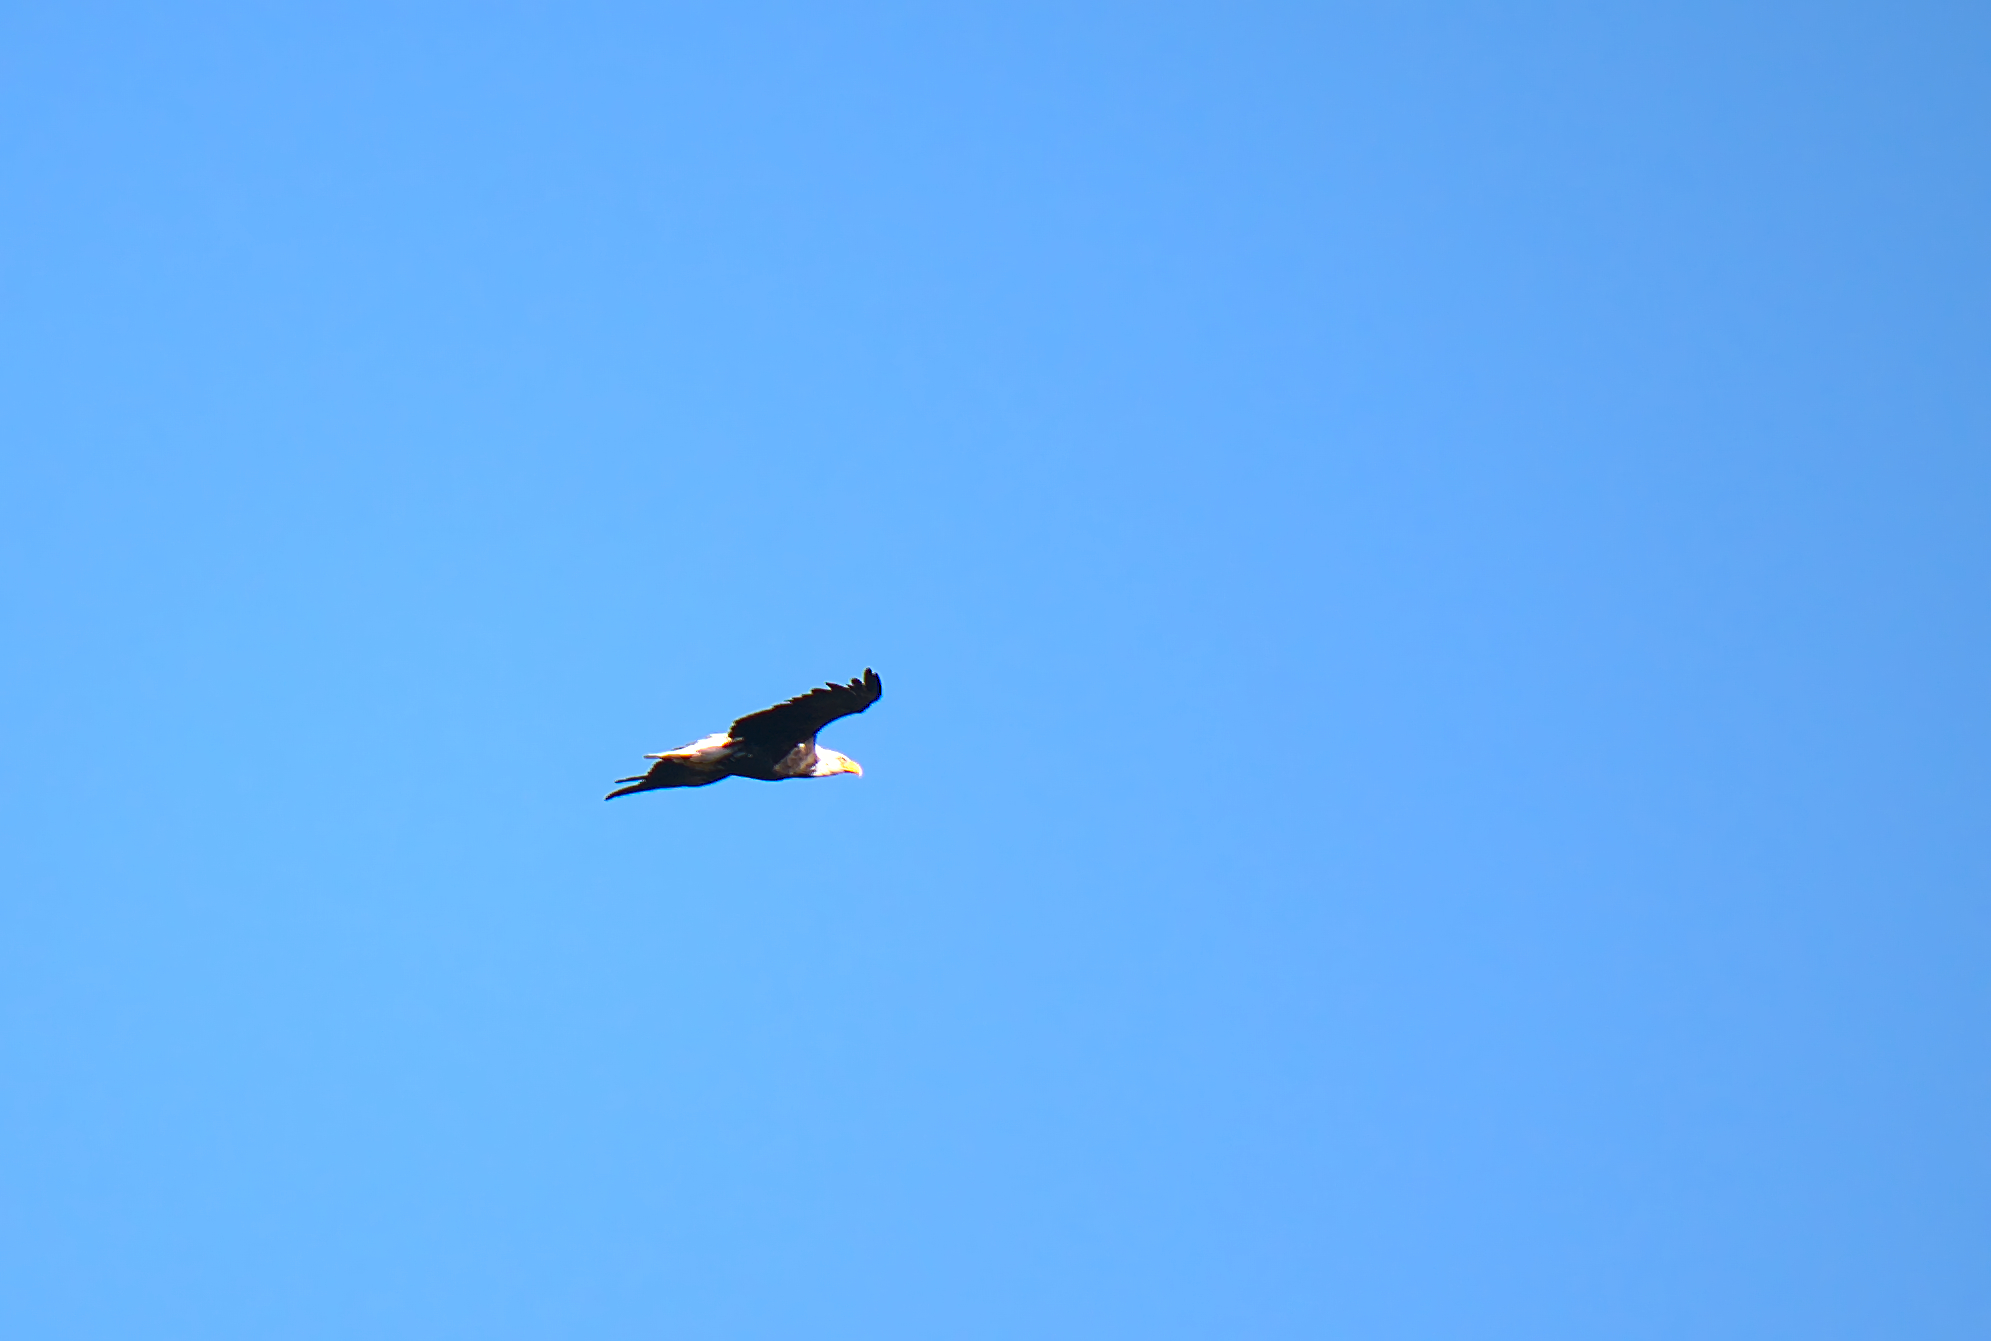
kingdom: Animalia
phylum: Chordata
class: Aves
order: Accipitriformes
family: Accipitridae
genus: Haliaeetus
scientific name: Haliaeetus leucocephalus
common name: Bald eagle
